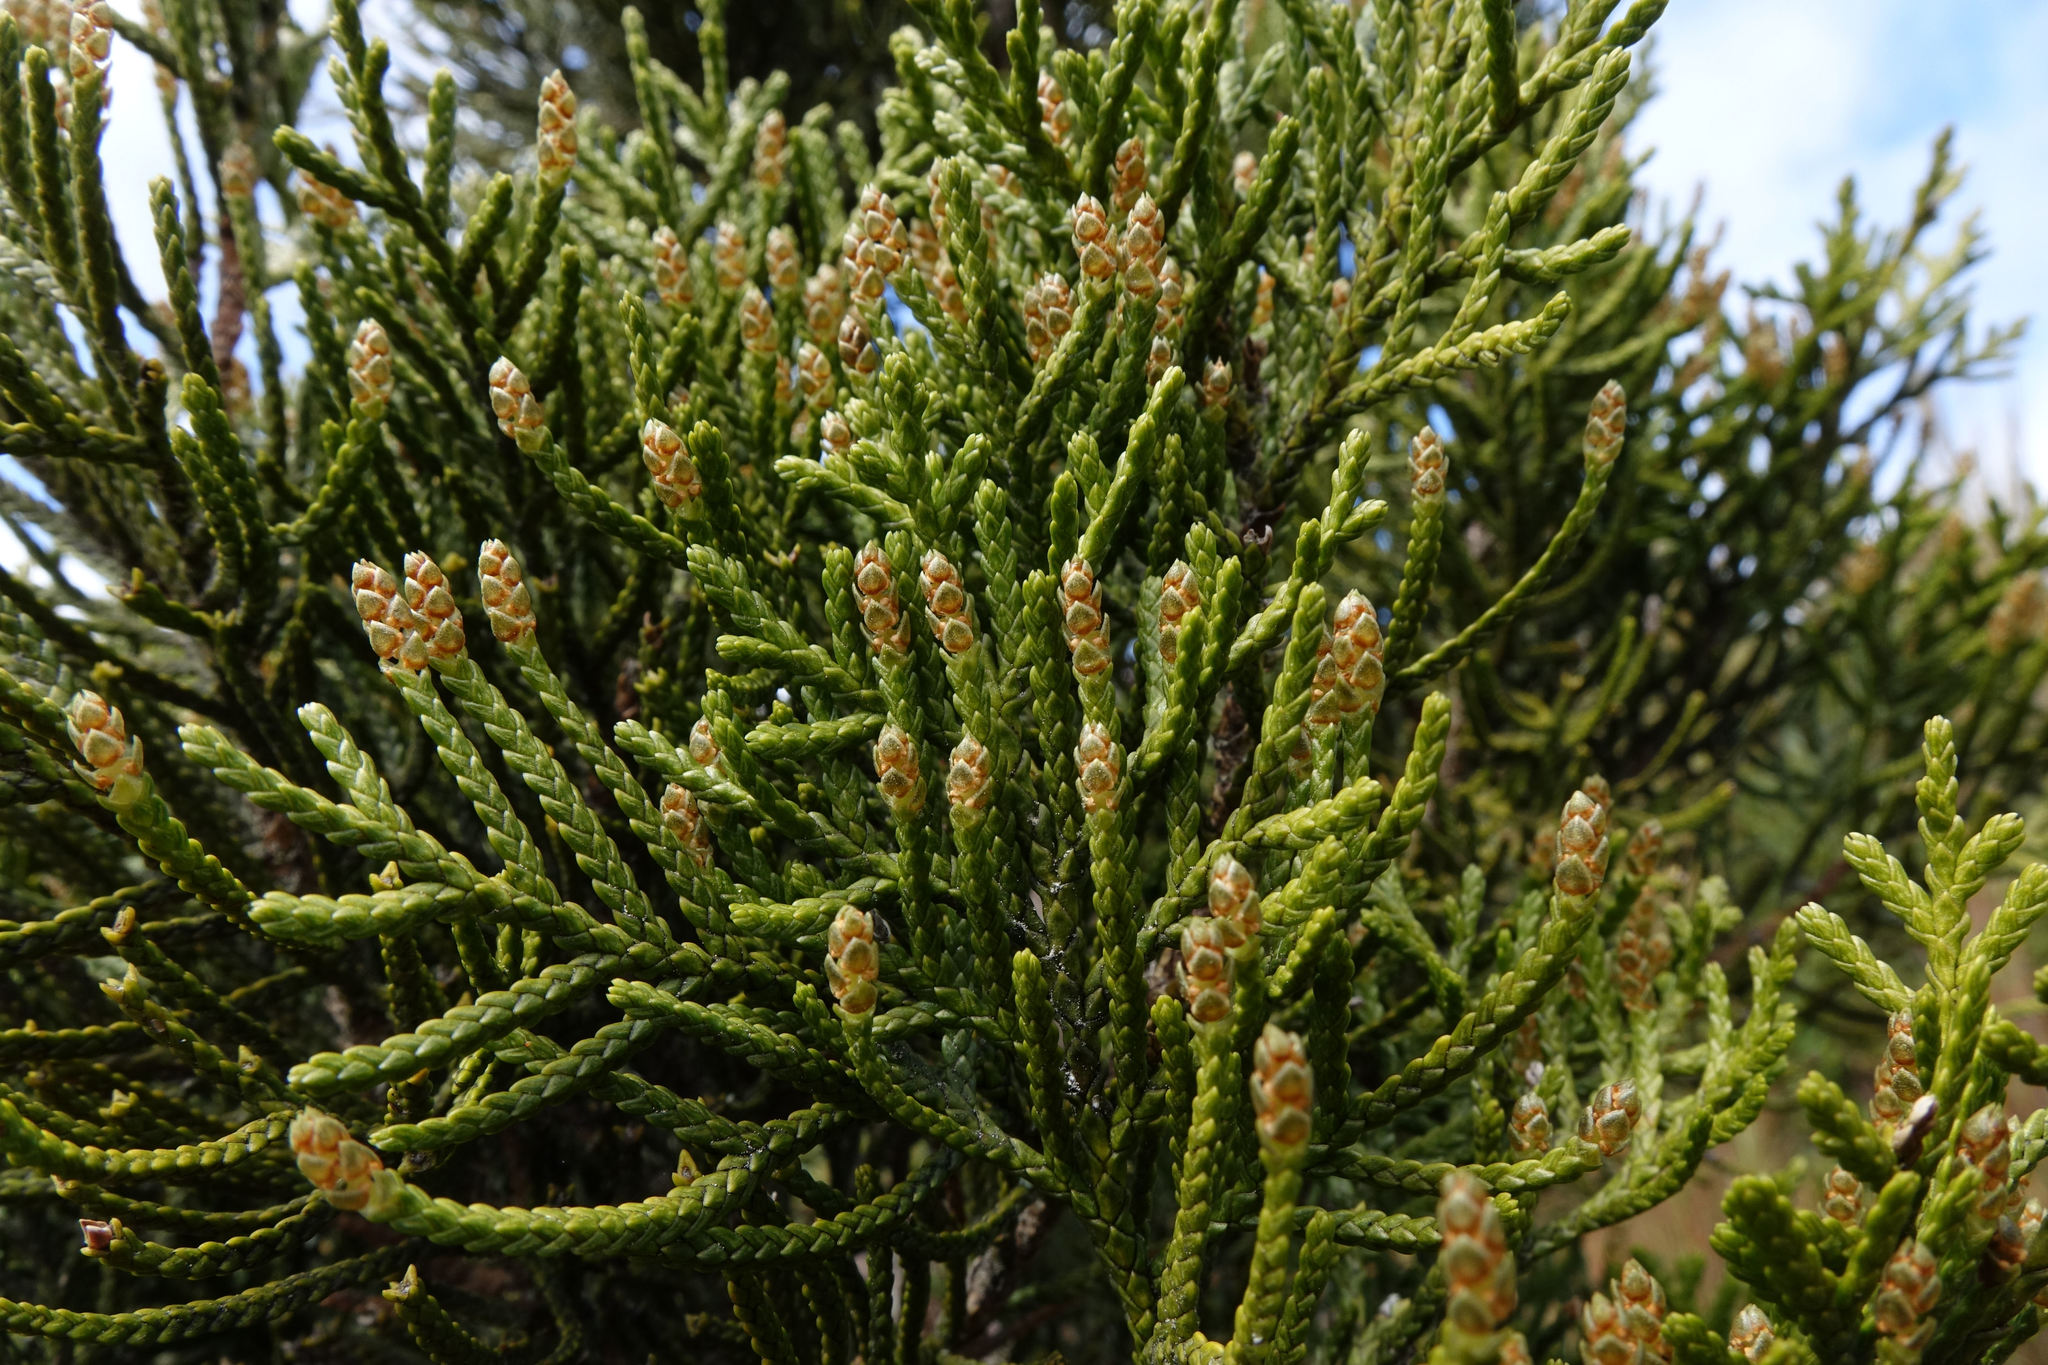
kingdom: Plantae
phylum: Tracheophyta
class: Pinopsida
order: Pinales
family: Cupressaceae
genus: Libocedrus
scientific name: Libocedrus bidwillii
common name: Cedar
